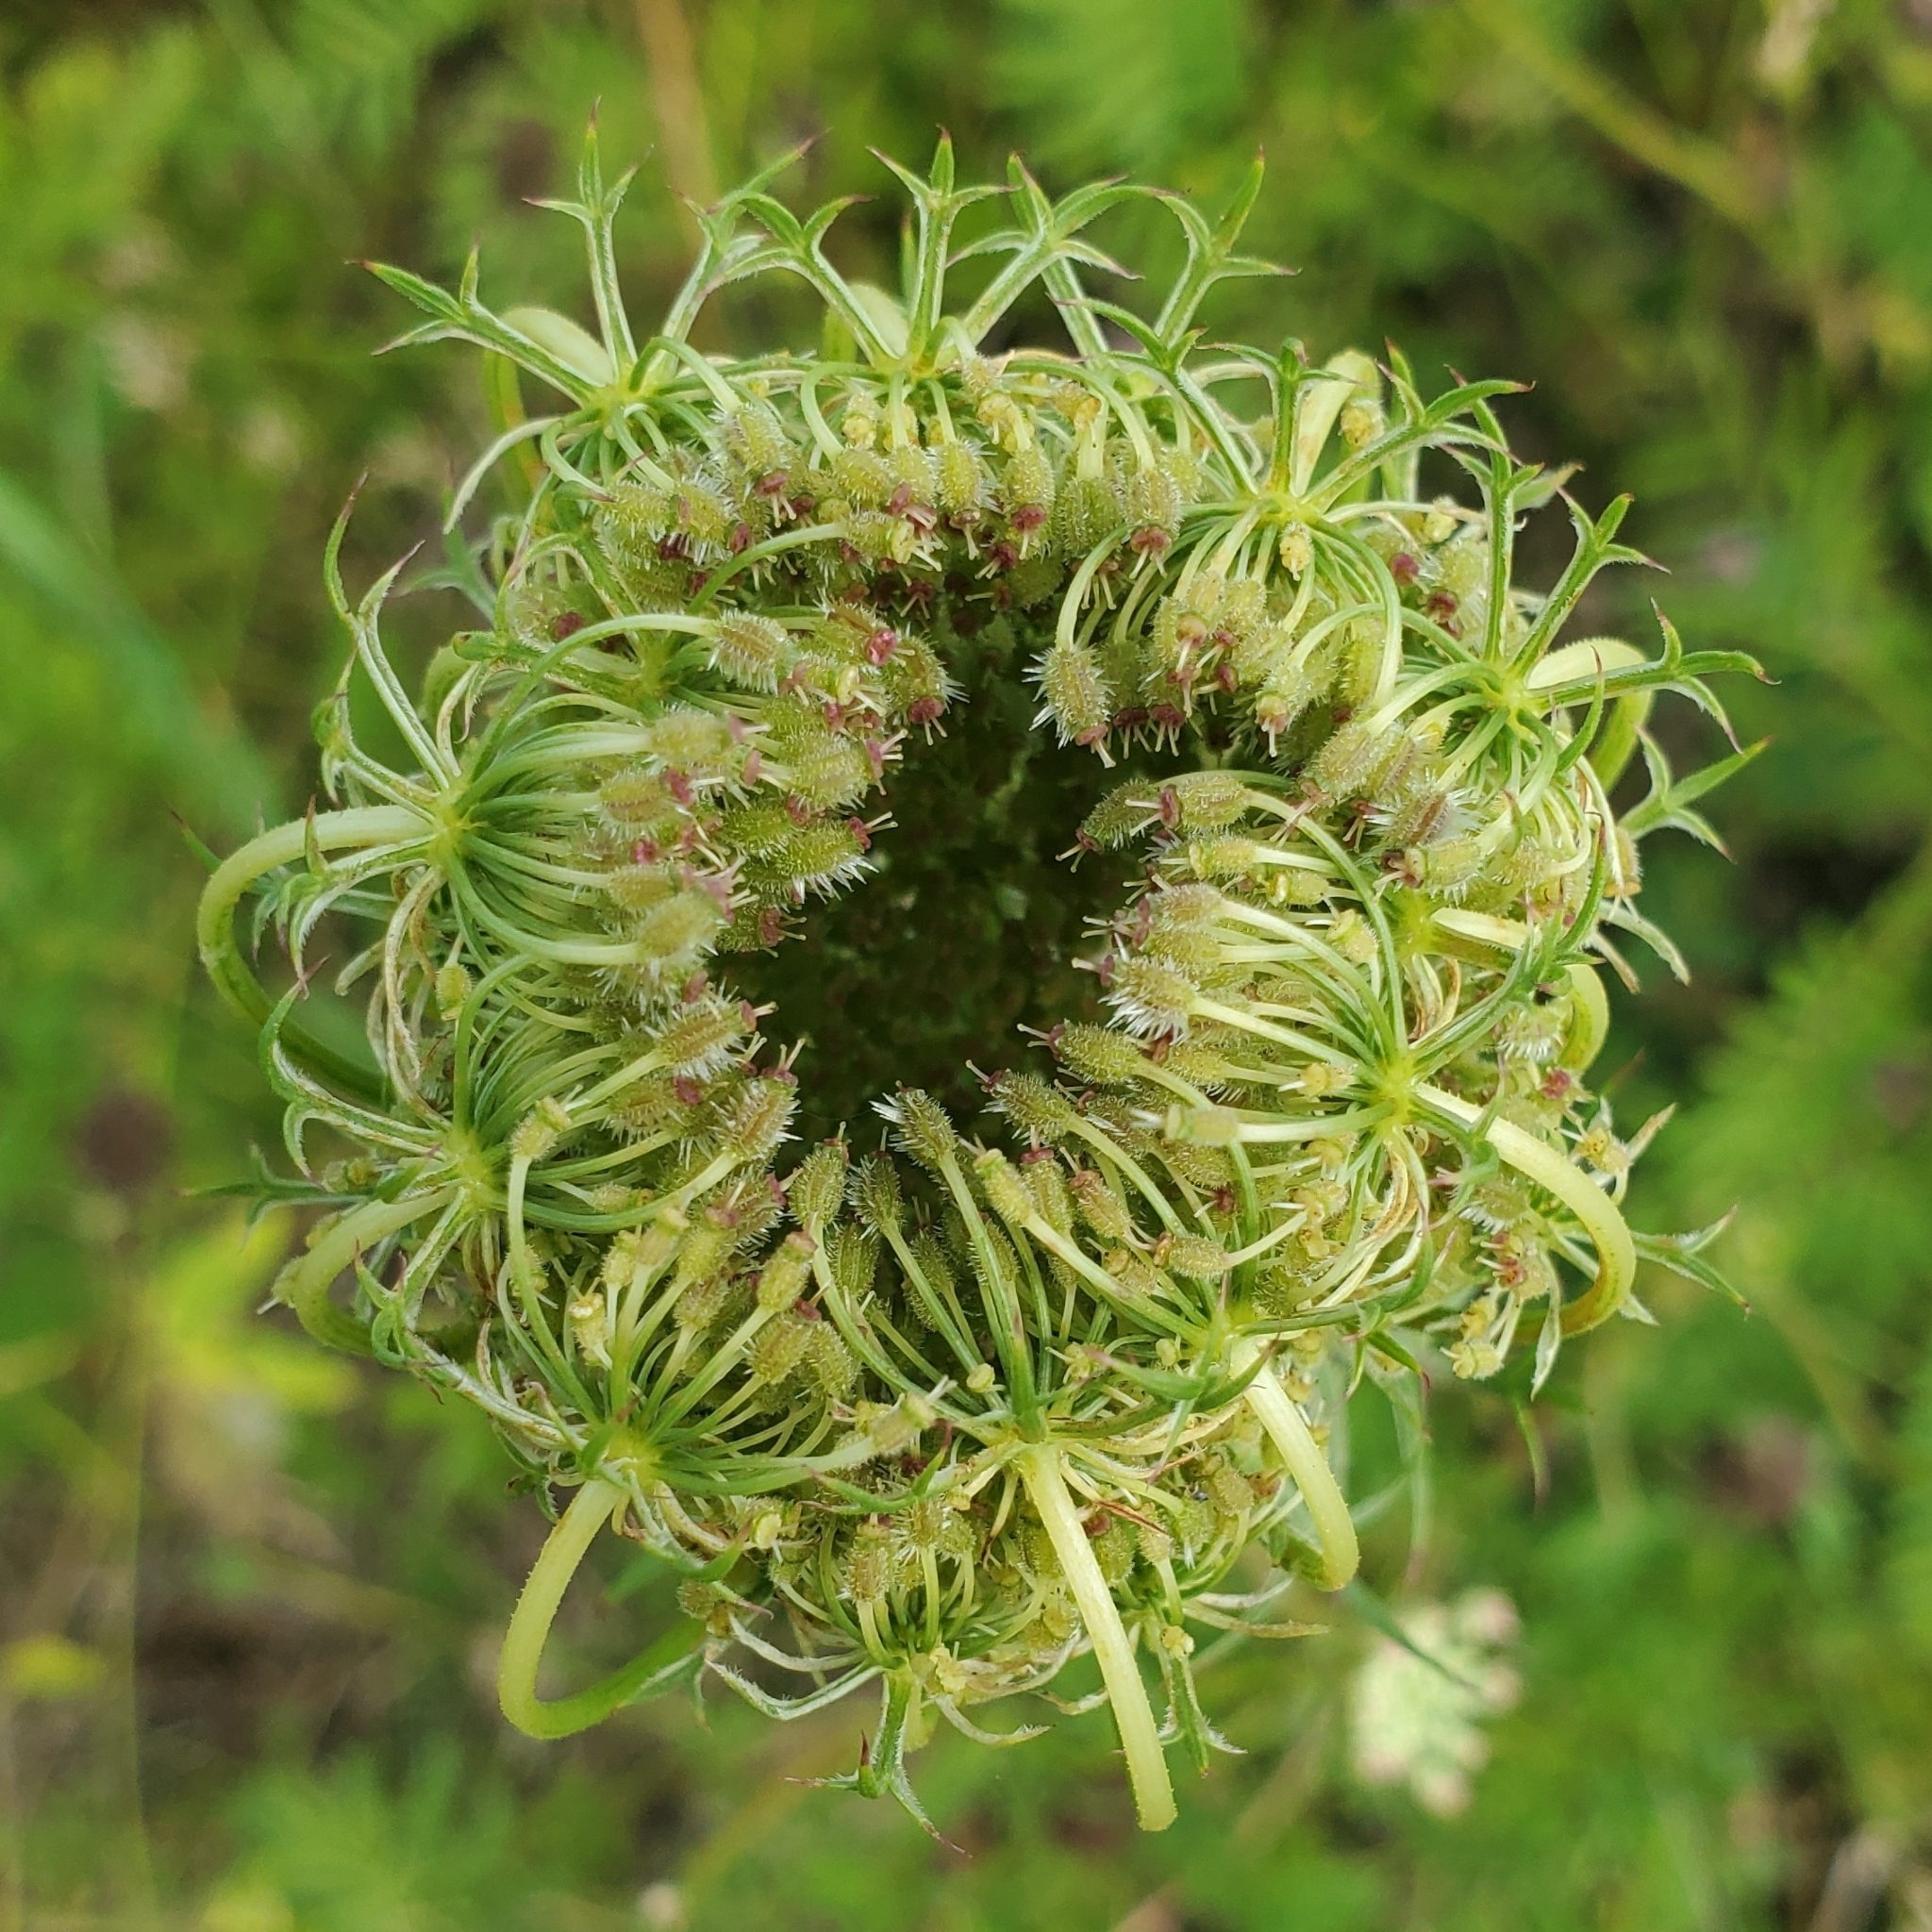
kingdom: Plantae
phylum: Tracheophyta
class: Magnoliopsida
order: Apiales
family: Apiaceae
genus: Daucus
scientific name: Daucus carota
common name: Wild carrot
